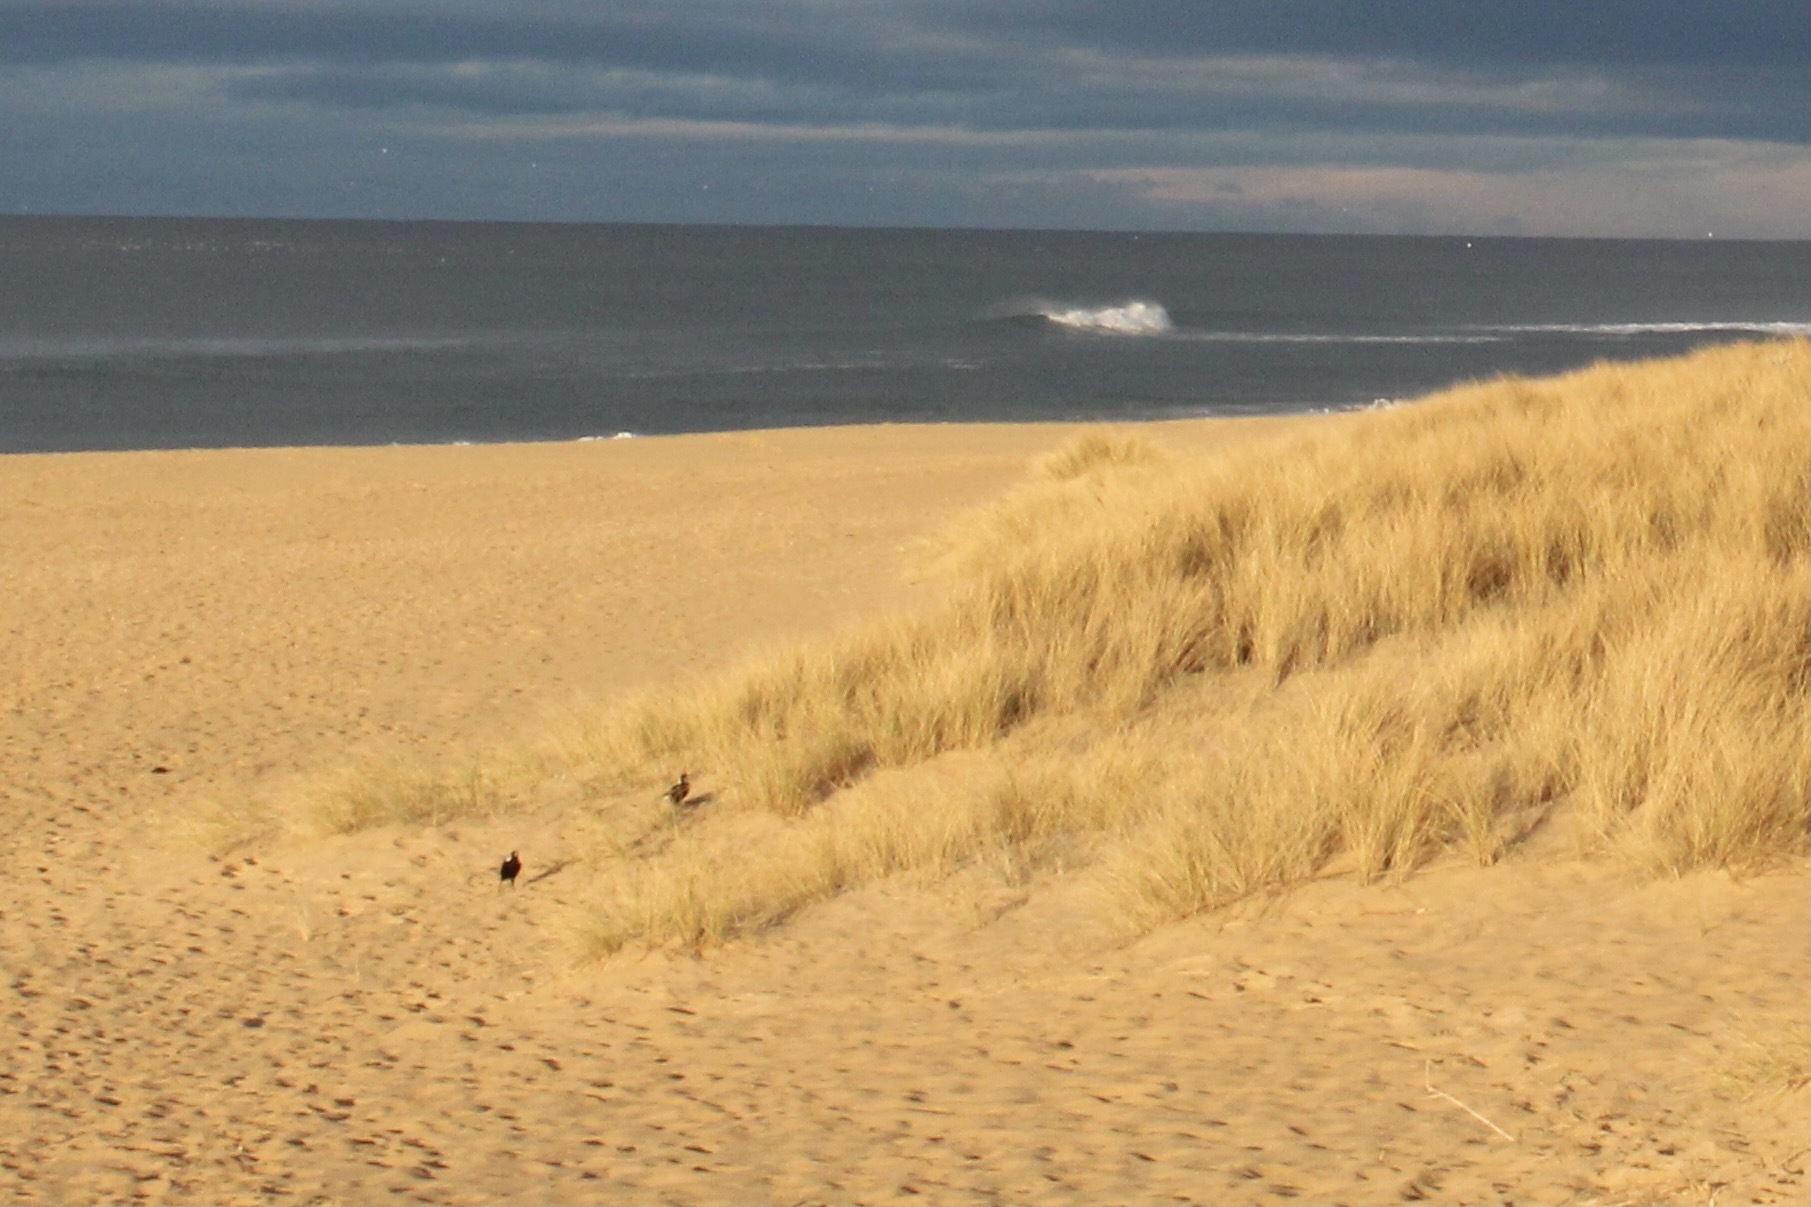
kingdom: Animalia
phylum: Chordata
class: Aves
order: Passeriformes
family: Cracticidae
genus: Gymnorhina
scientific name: Gymnorhina tibicen
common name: Australian magpie
